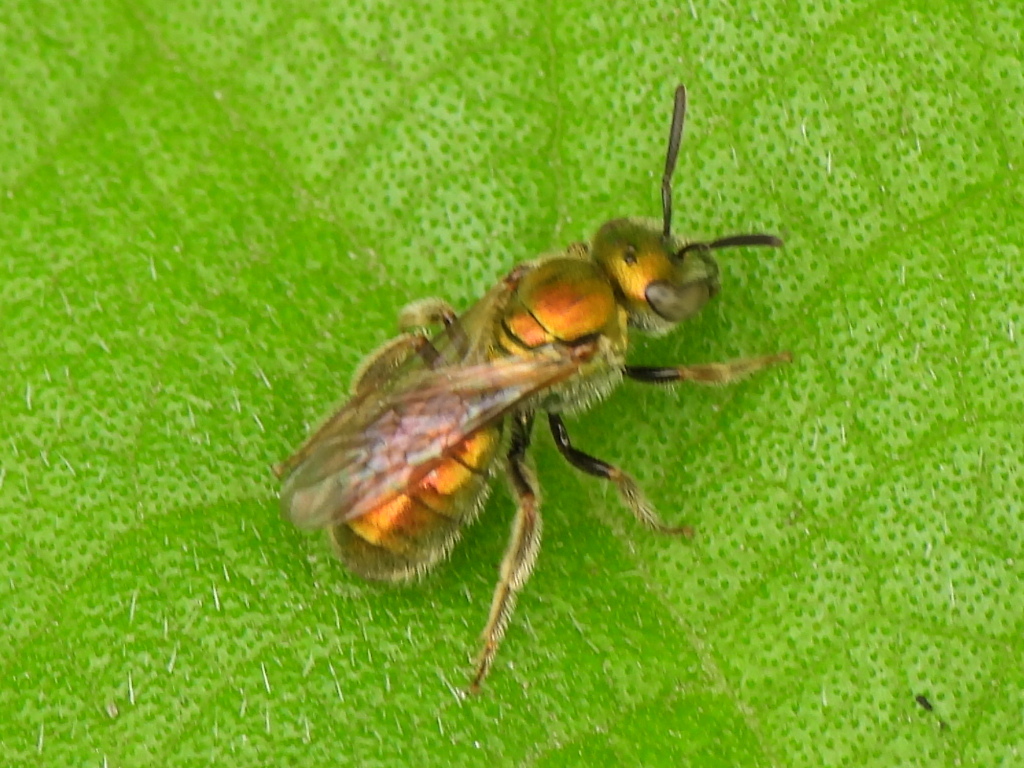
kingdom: Animalia
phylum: Arthropoda
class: Insecta
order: Hymenoptera
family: Halictidae
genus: Augochlora
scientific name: Augochlora aurifera
